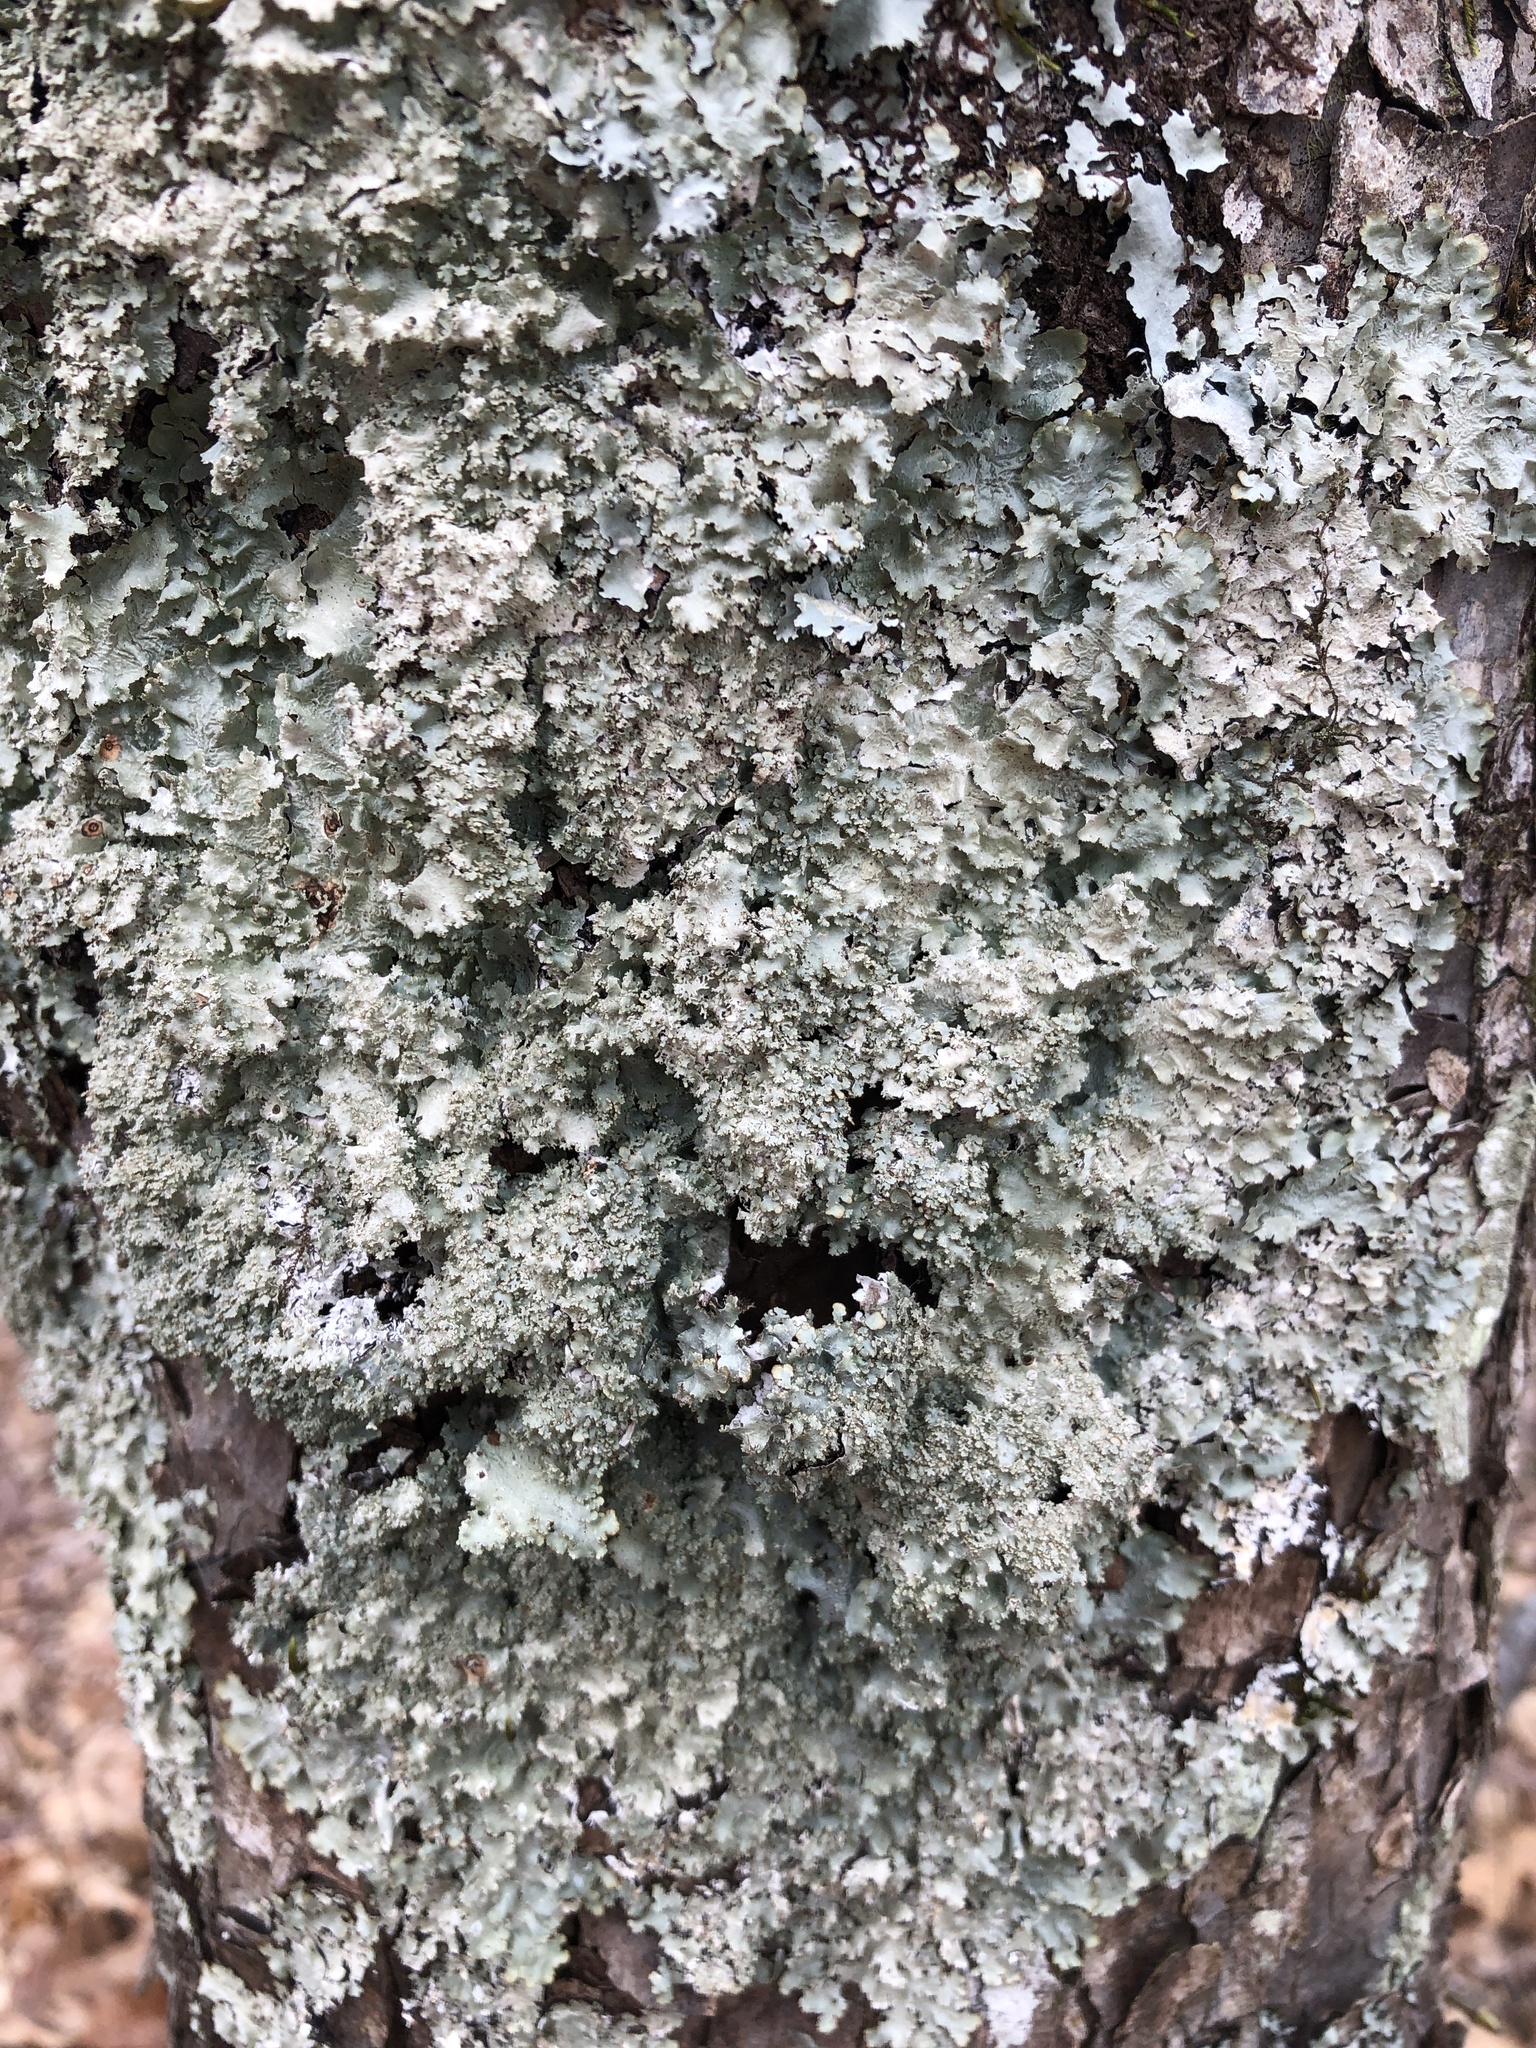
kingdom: Fungi
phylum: Ascomycota
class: Lecanoromycetes
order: Lecanorales
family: Parmeliaceae
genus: Punctelia
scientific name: Punctelia appalachensis
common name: Appalaches appalachian speckled shield lichen
